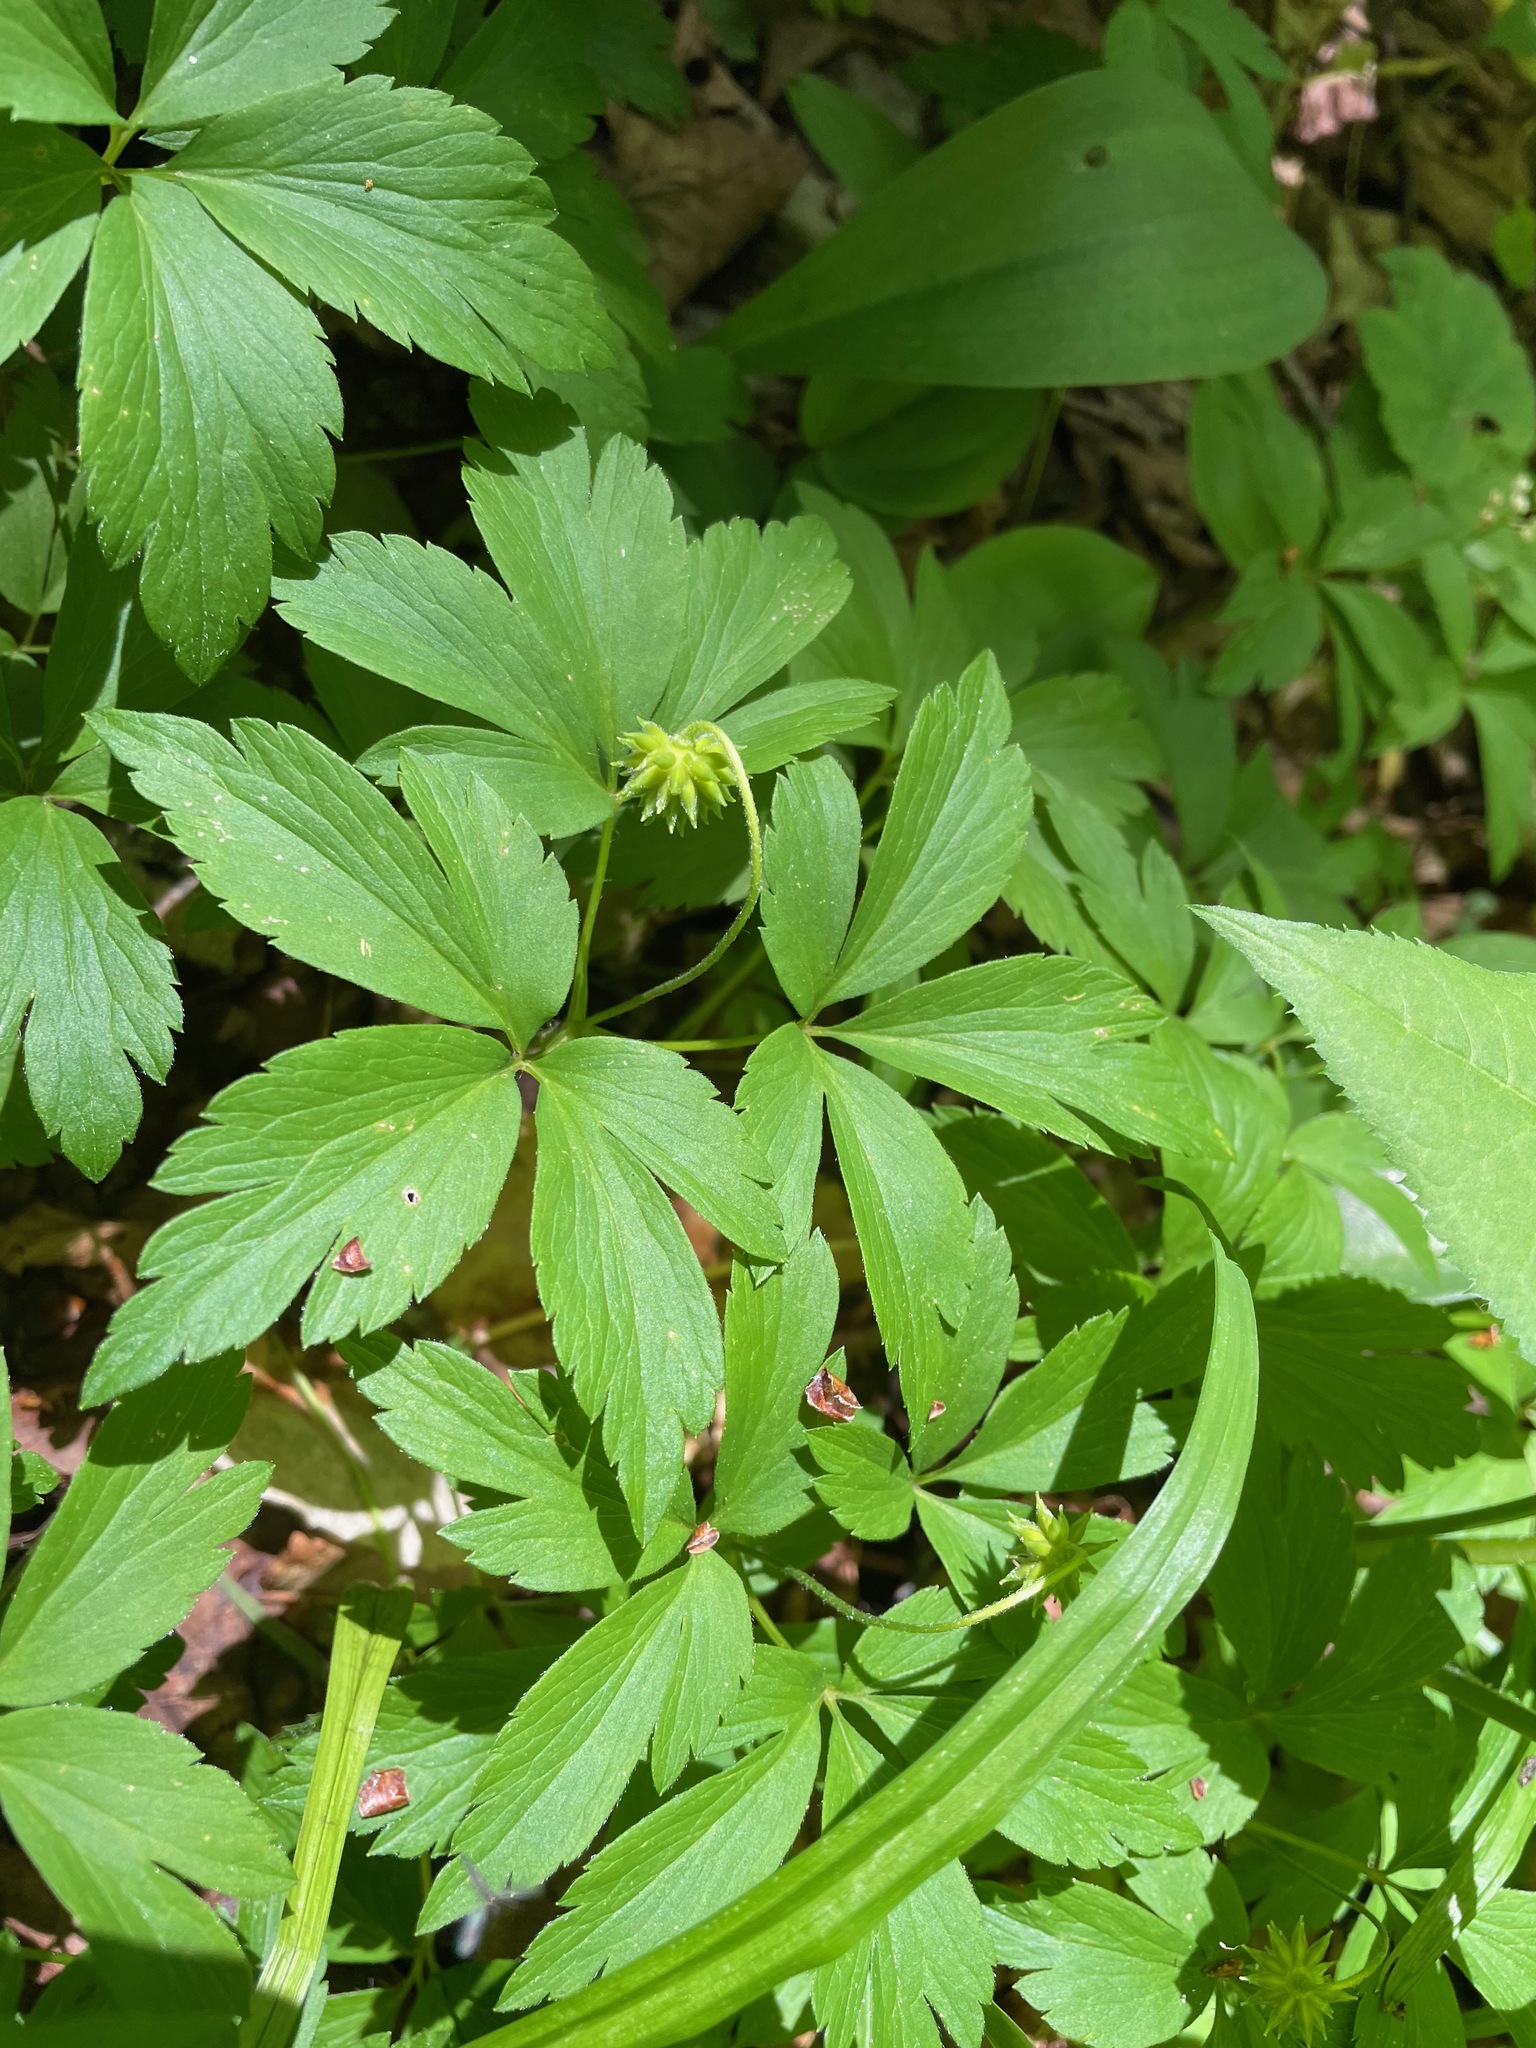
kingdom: Plantae
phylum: Tracheophyta
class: Magnoliopsida
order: Ranunculales
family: Ranunculaceae
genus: Anemone
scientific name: Anemone quinquefolia
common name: Wood anemone
